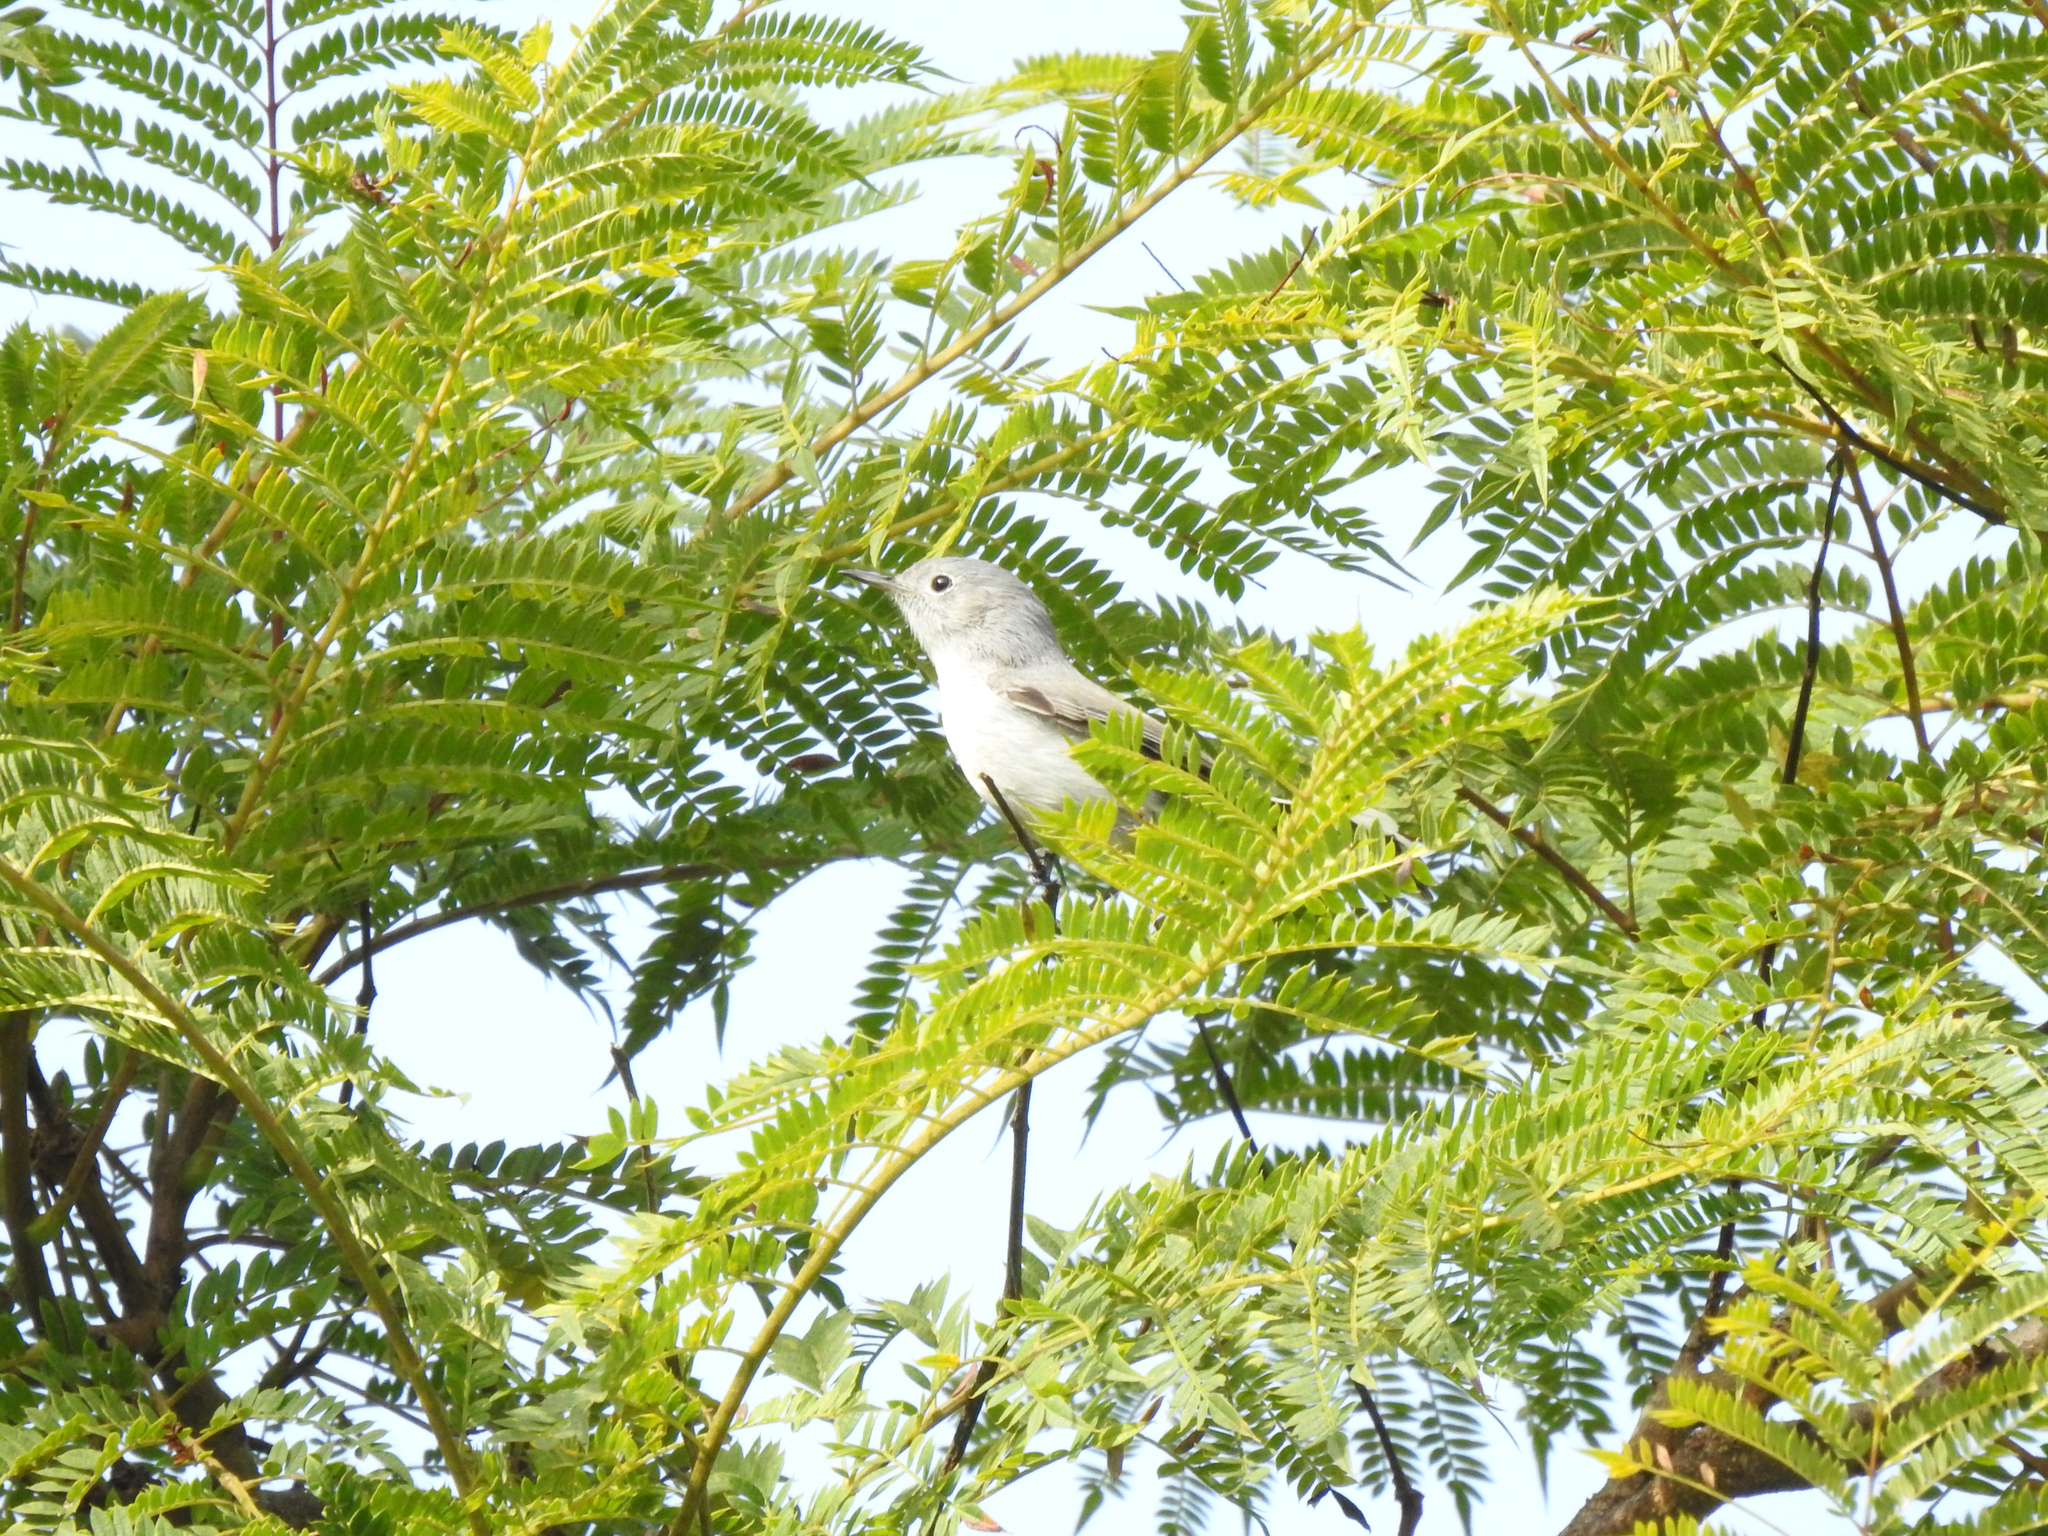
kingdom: Animalia
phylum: Chordata
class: Aves
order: Passeriformes
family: Polioptilidae
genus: Polioptila
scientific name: Polioptila caerulea
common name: Blue-gray gnatcatcher
